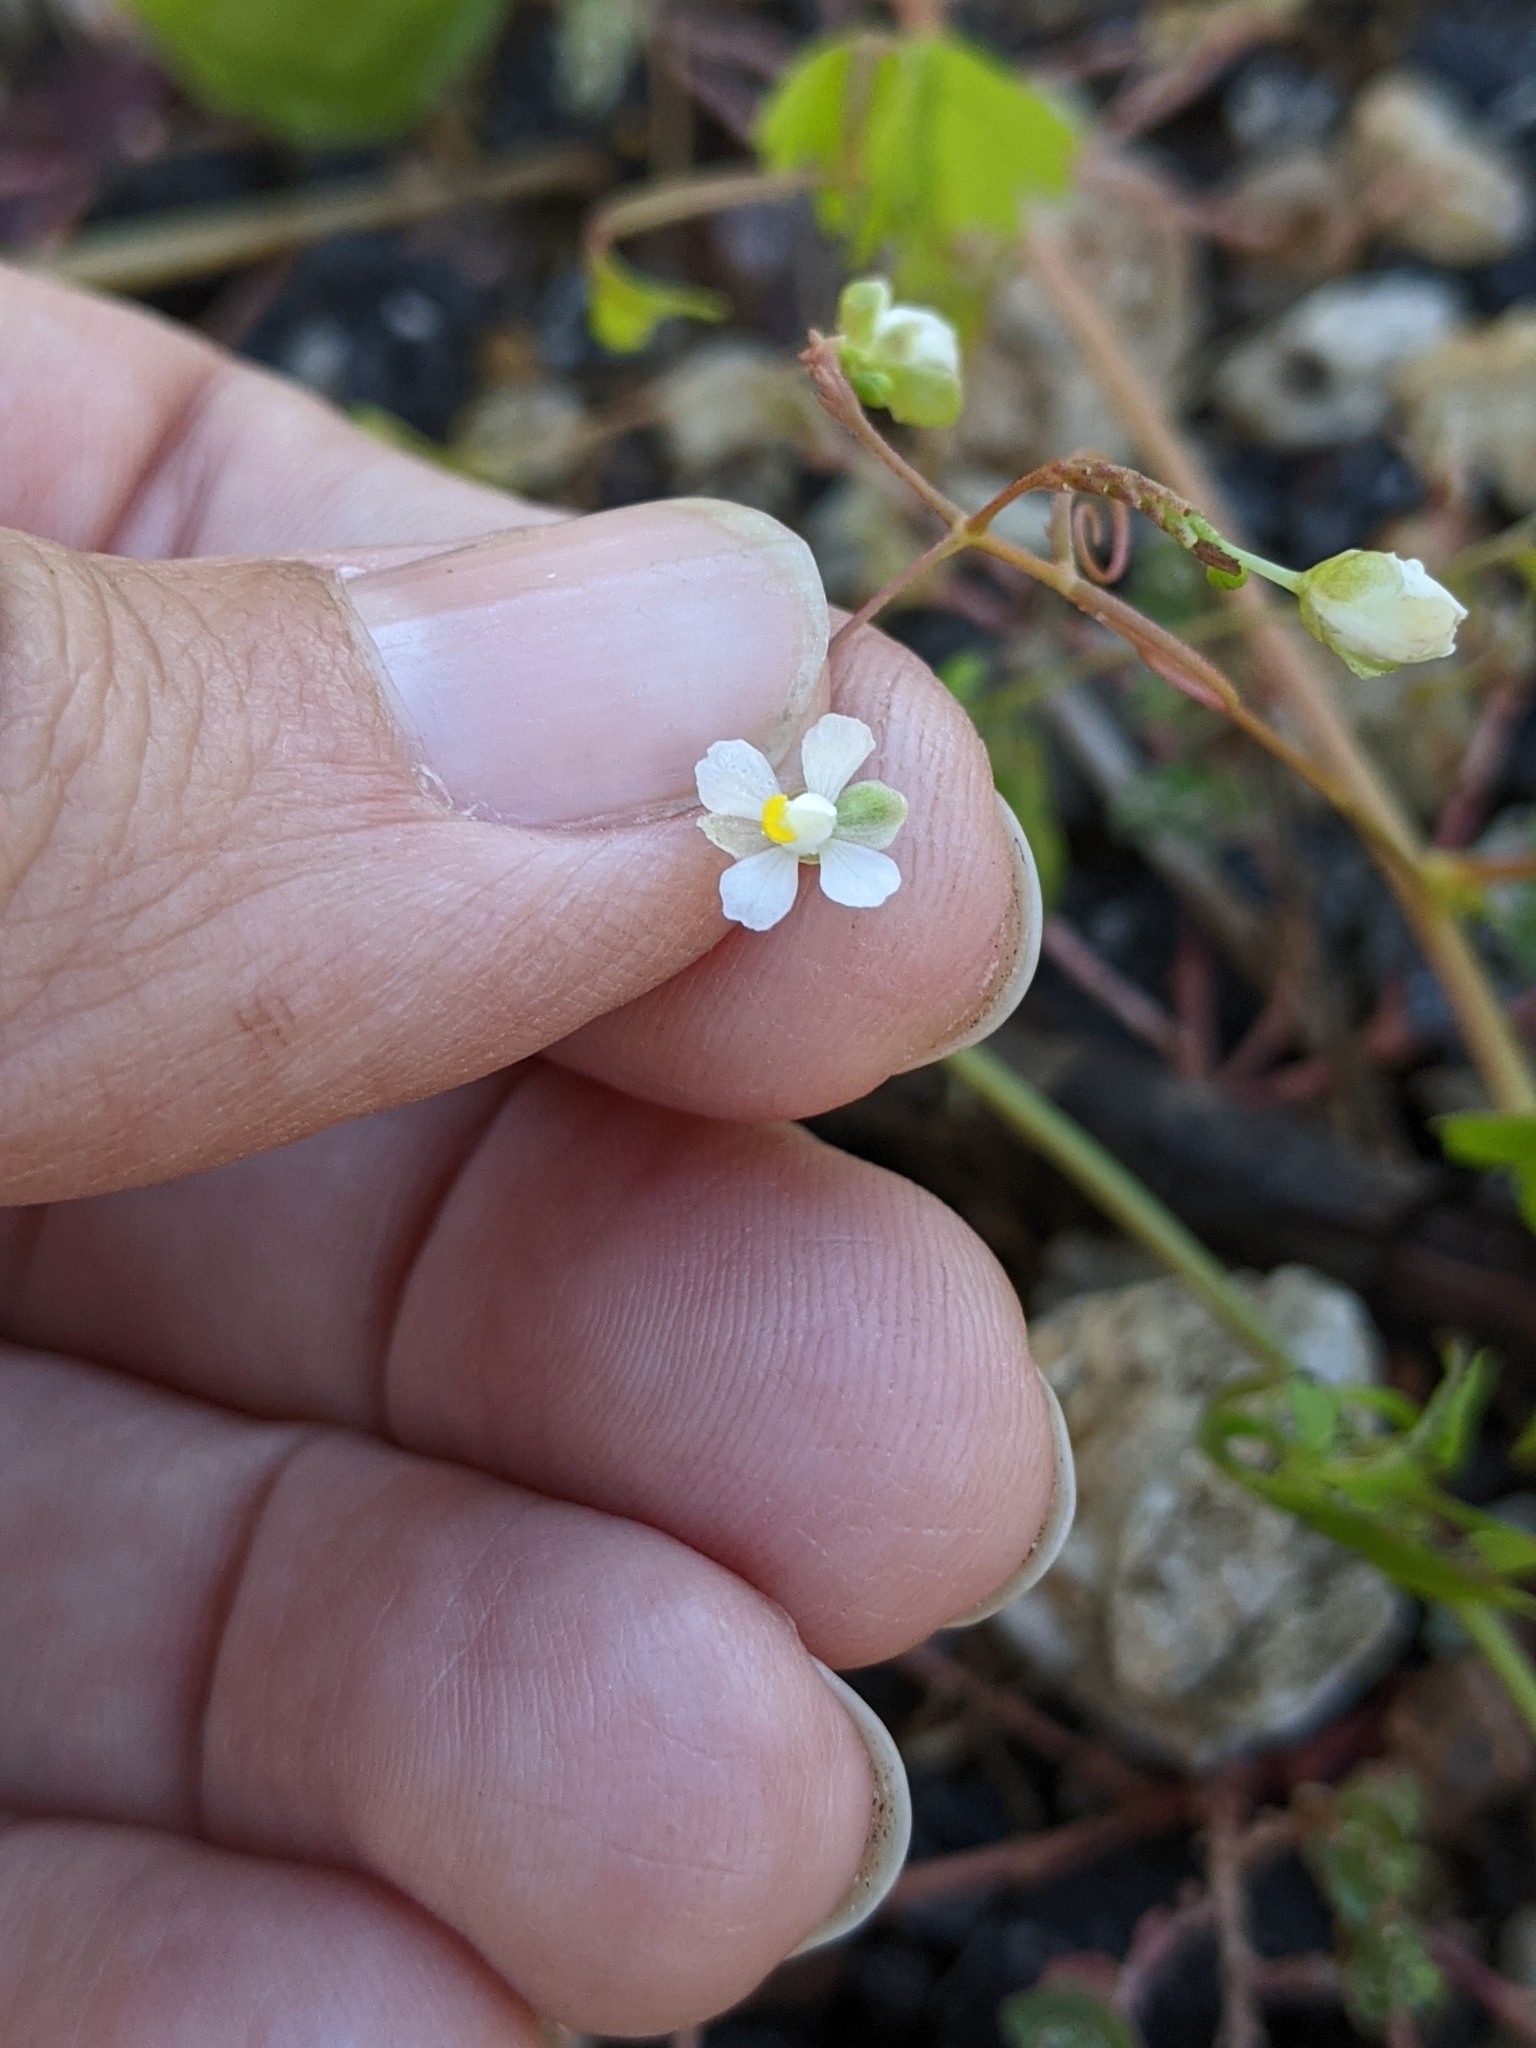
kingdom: Plantae
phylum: Tracheophyta
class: Magnoliopsida
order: Sapindales
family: Sapindaceae
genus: Cardiospermum
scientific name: Cardiospermum halicacabum
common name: Balloon vine
